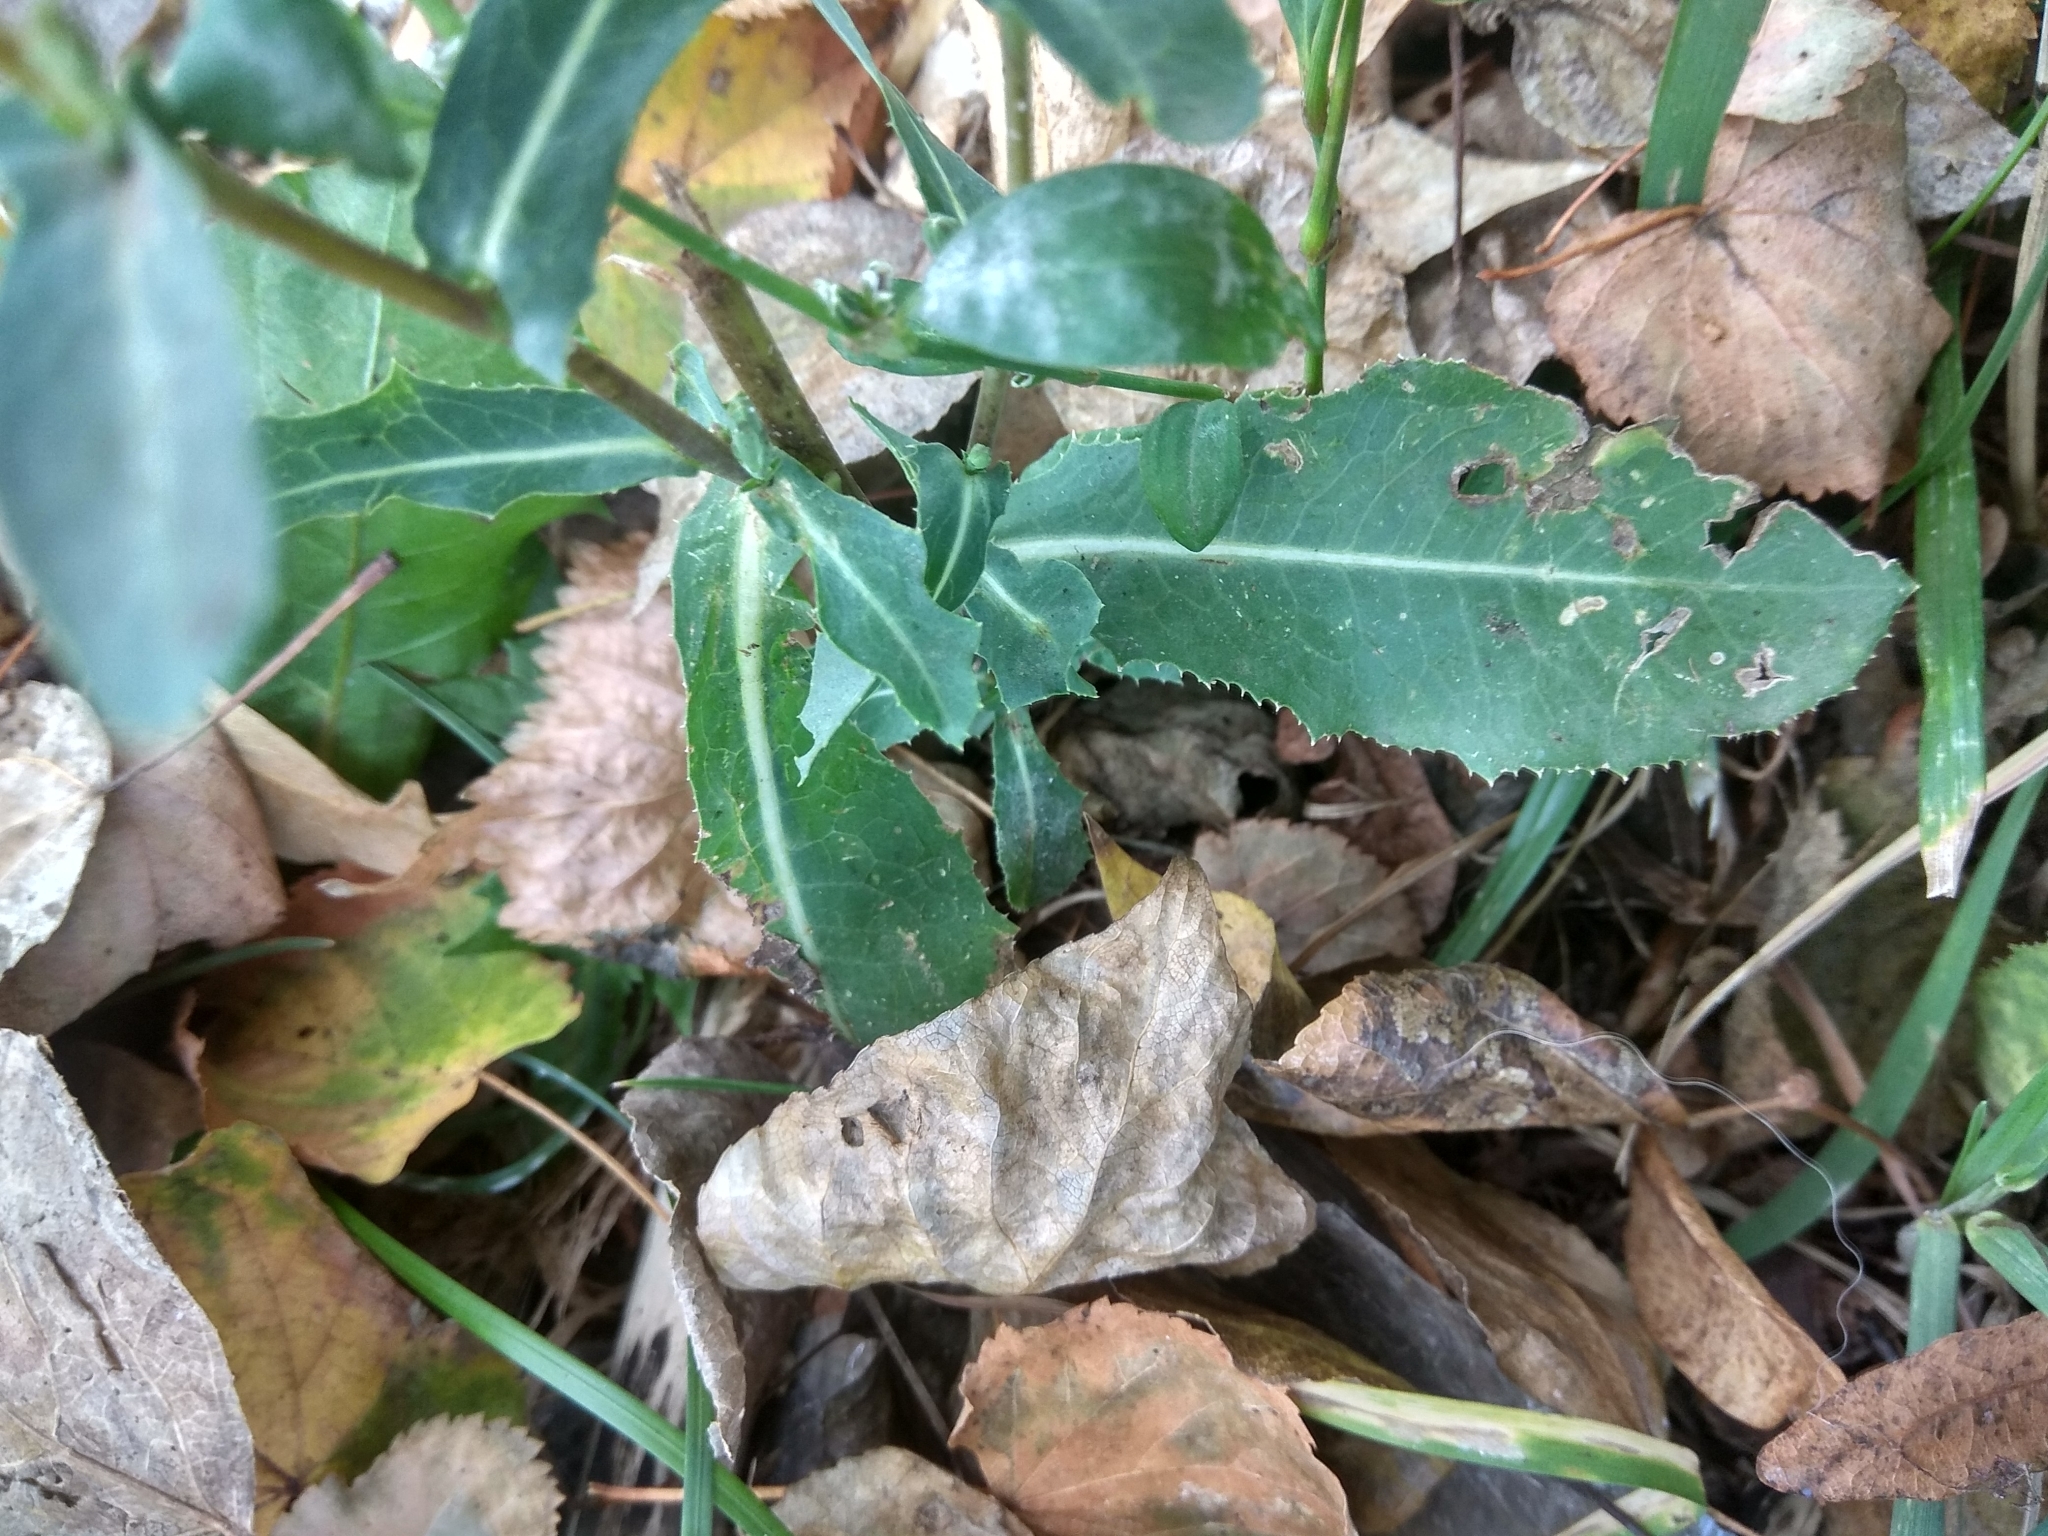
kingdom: Plantae
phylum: Tracheophyta
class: Magnoliopsida
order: Asterales
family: Asteraceae
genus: Lactuca
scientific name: Lactuca serriola
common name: Prickly lettuce
